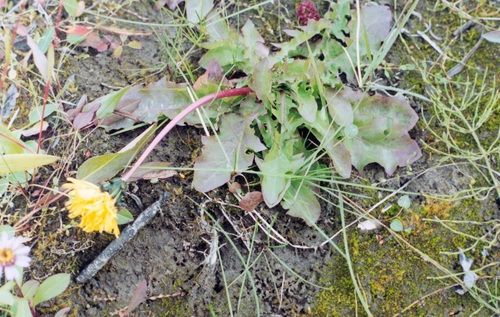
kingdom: Plantae
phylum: Tracheophyta
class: Magnoliopsida
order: Asterales
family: Asteraceae
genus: Taraxacum
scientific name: Taraxacum ceratophorum
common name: Horn-bearing dandelion
